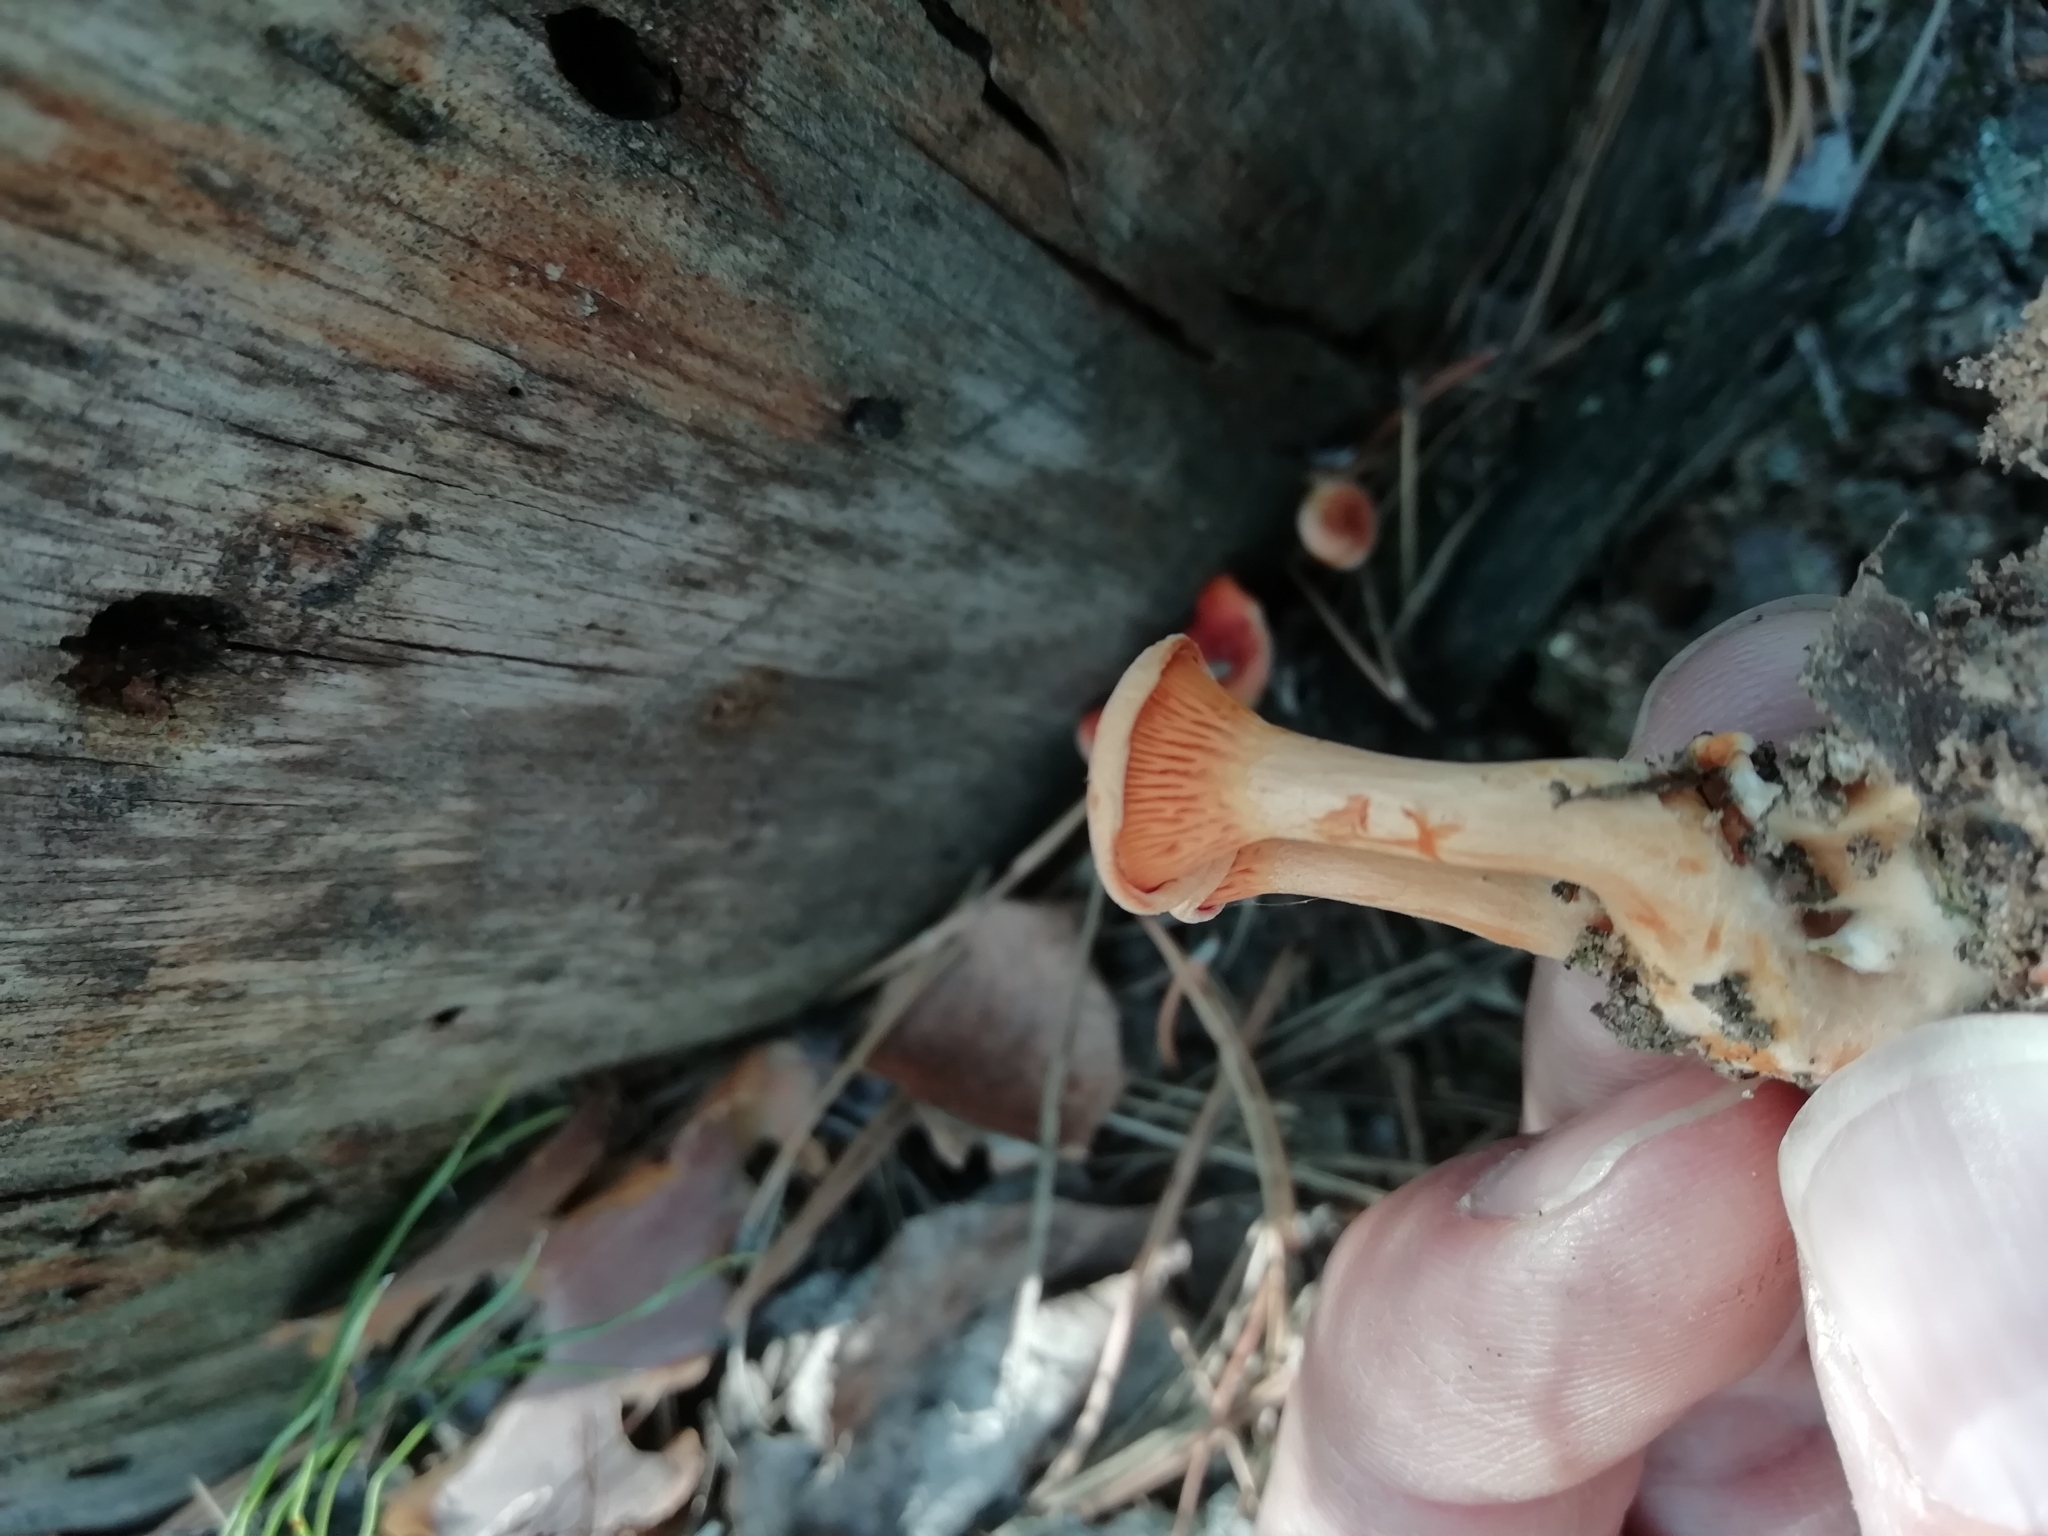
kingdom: Fungi
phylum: Basidiomycota
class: Agaricomycetes
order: Boletales
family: Hygrophoropsidaceae
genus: Hygrophoropsis
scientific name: Hygrophoropsis aurantiaca
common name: False chanterelle
